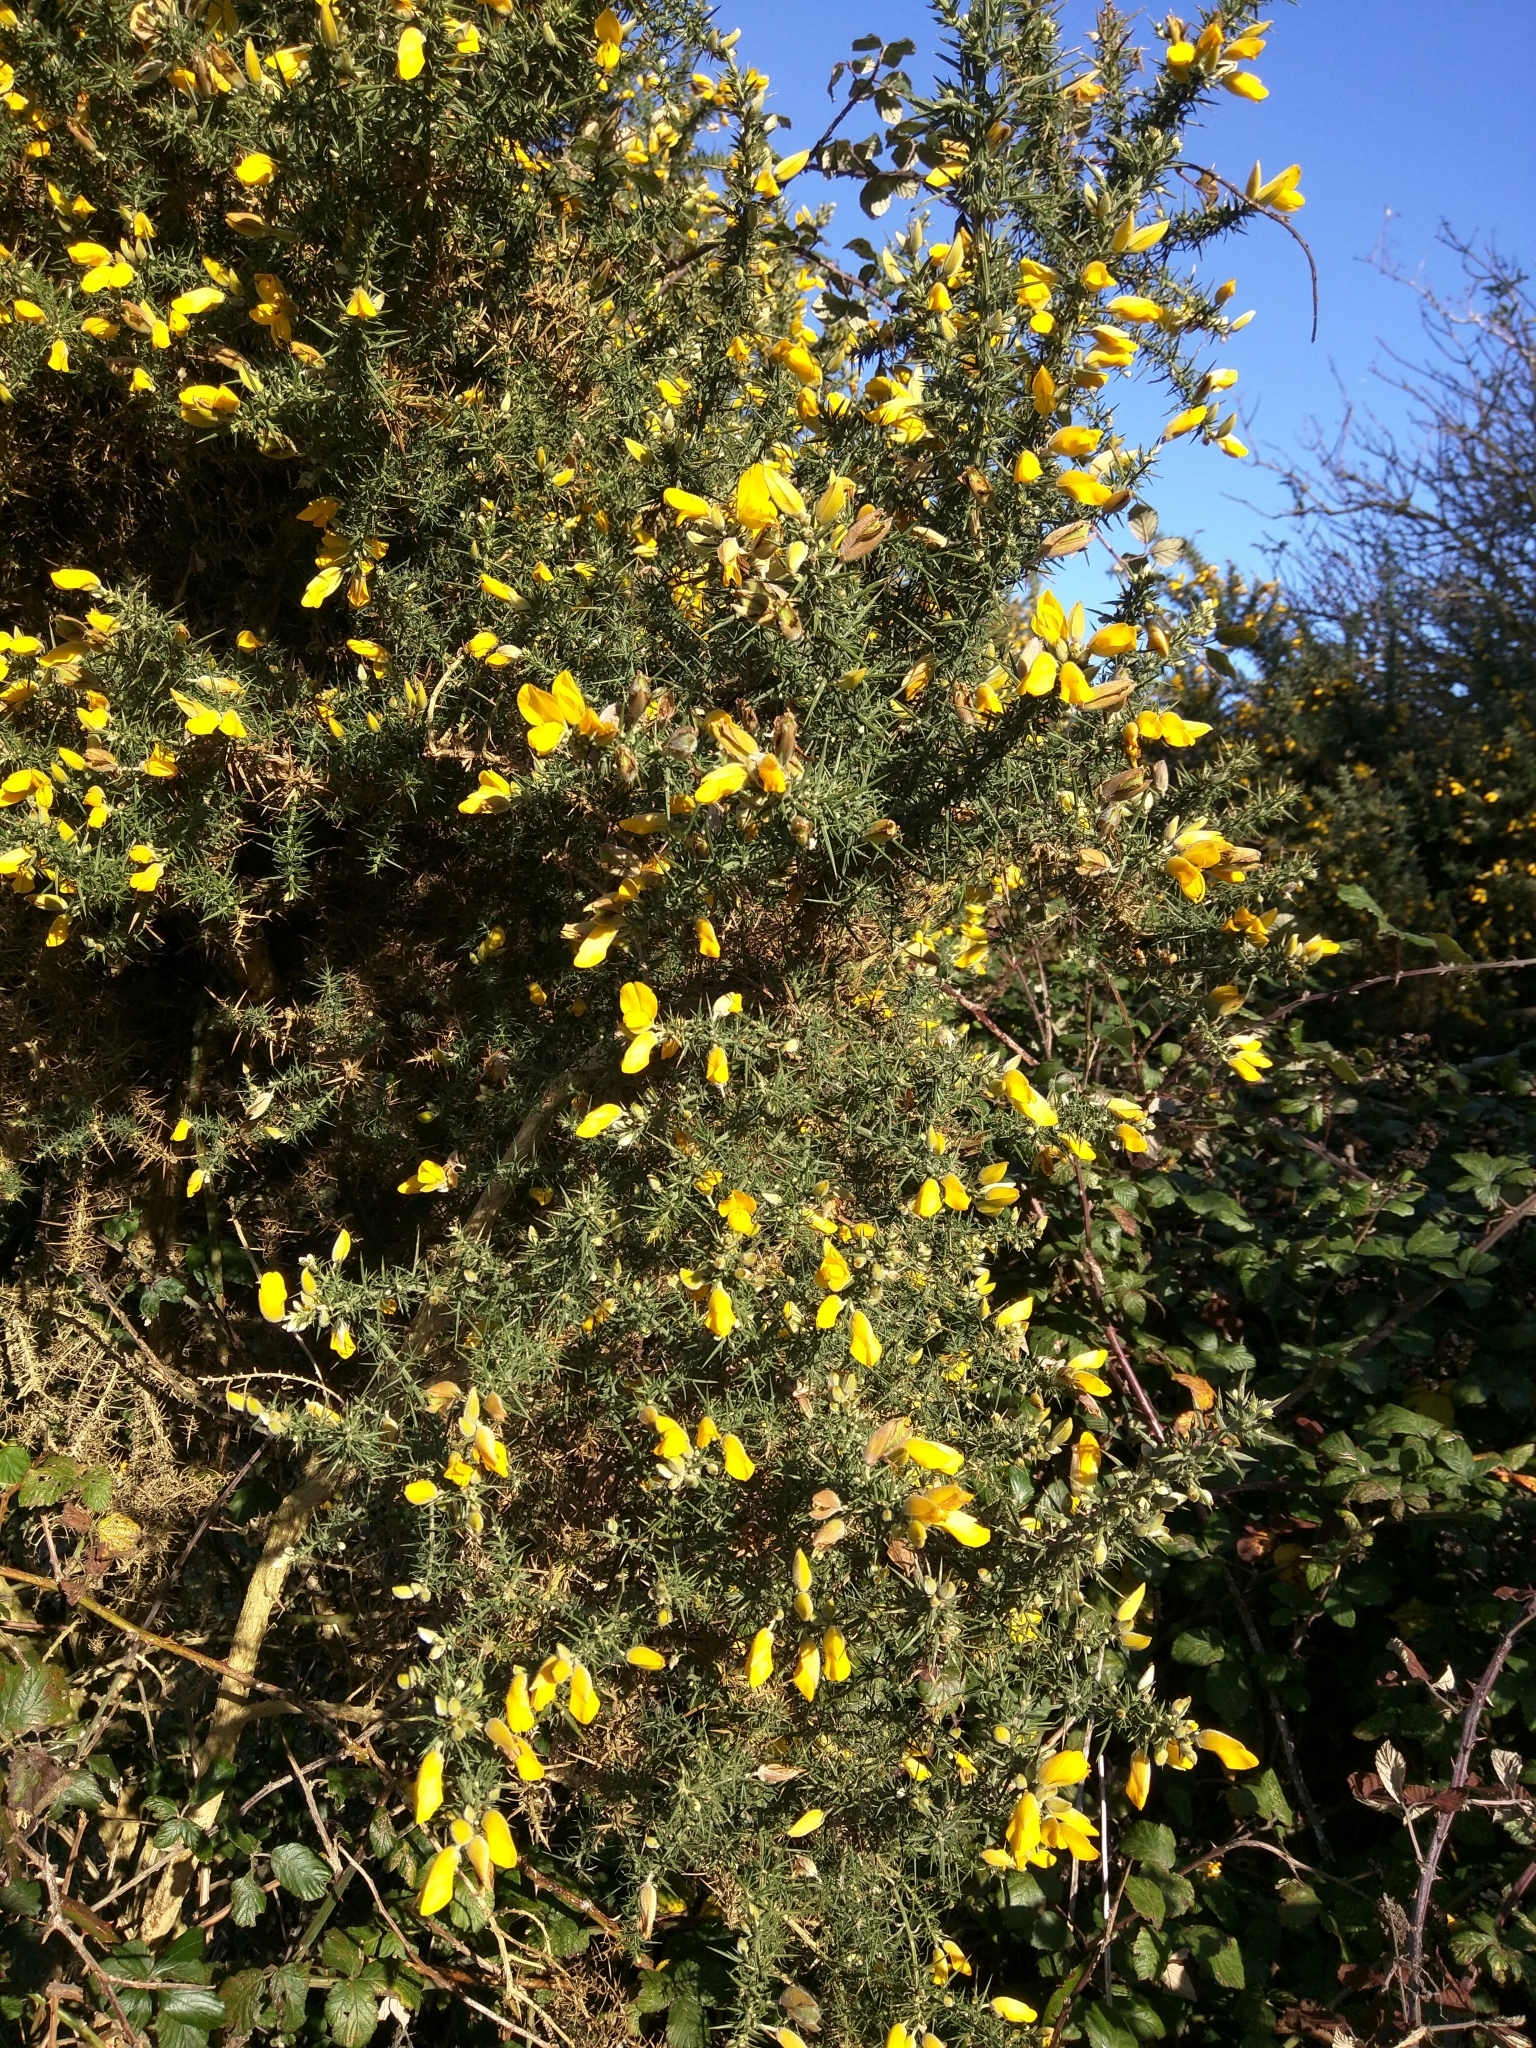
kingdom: Plantae
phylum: Tracheophyta
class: Magnoliopsida
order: Fabales
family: Fabaceae
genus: Ulex
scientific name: Ulex europaeus
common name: Common gorse
